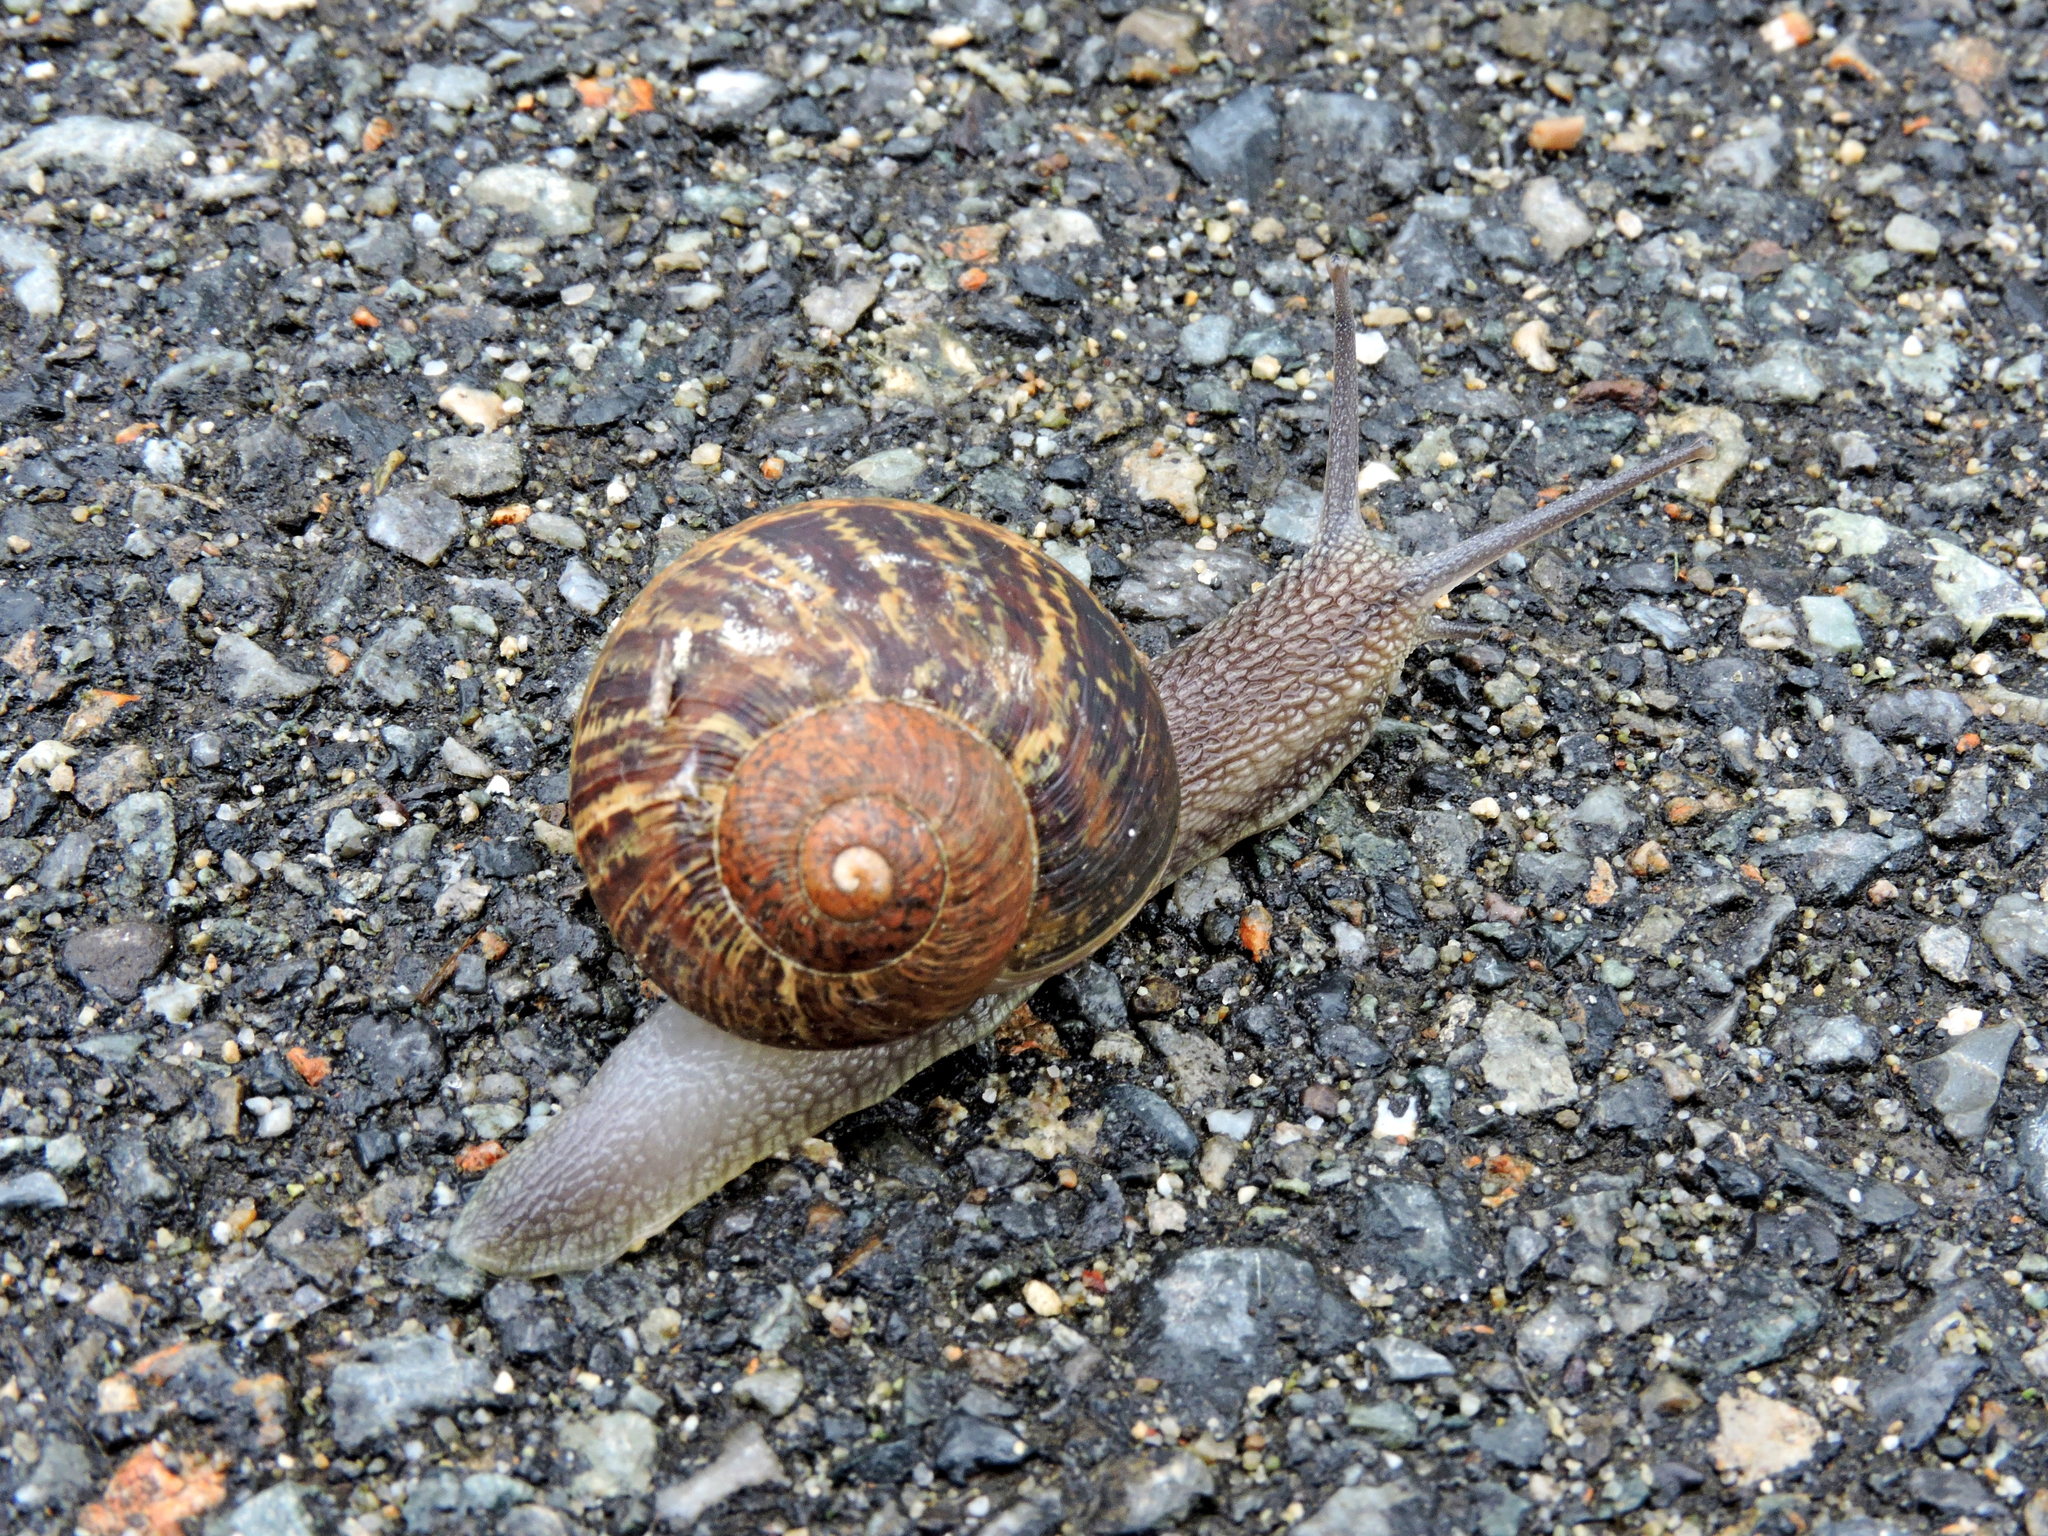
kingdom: Animalia
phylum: Mollusca
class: Gastropoda
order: Stylommatophora
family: Helicidae
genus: Cornu
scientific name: Cornu aspersum
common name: Brown garden snail
